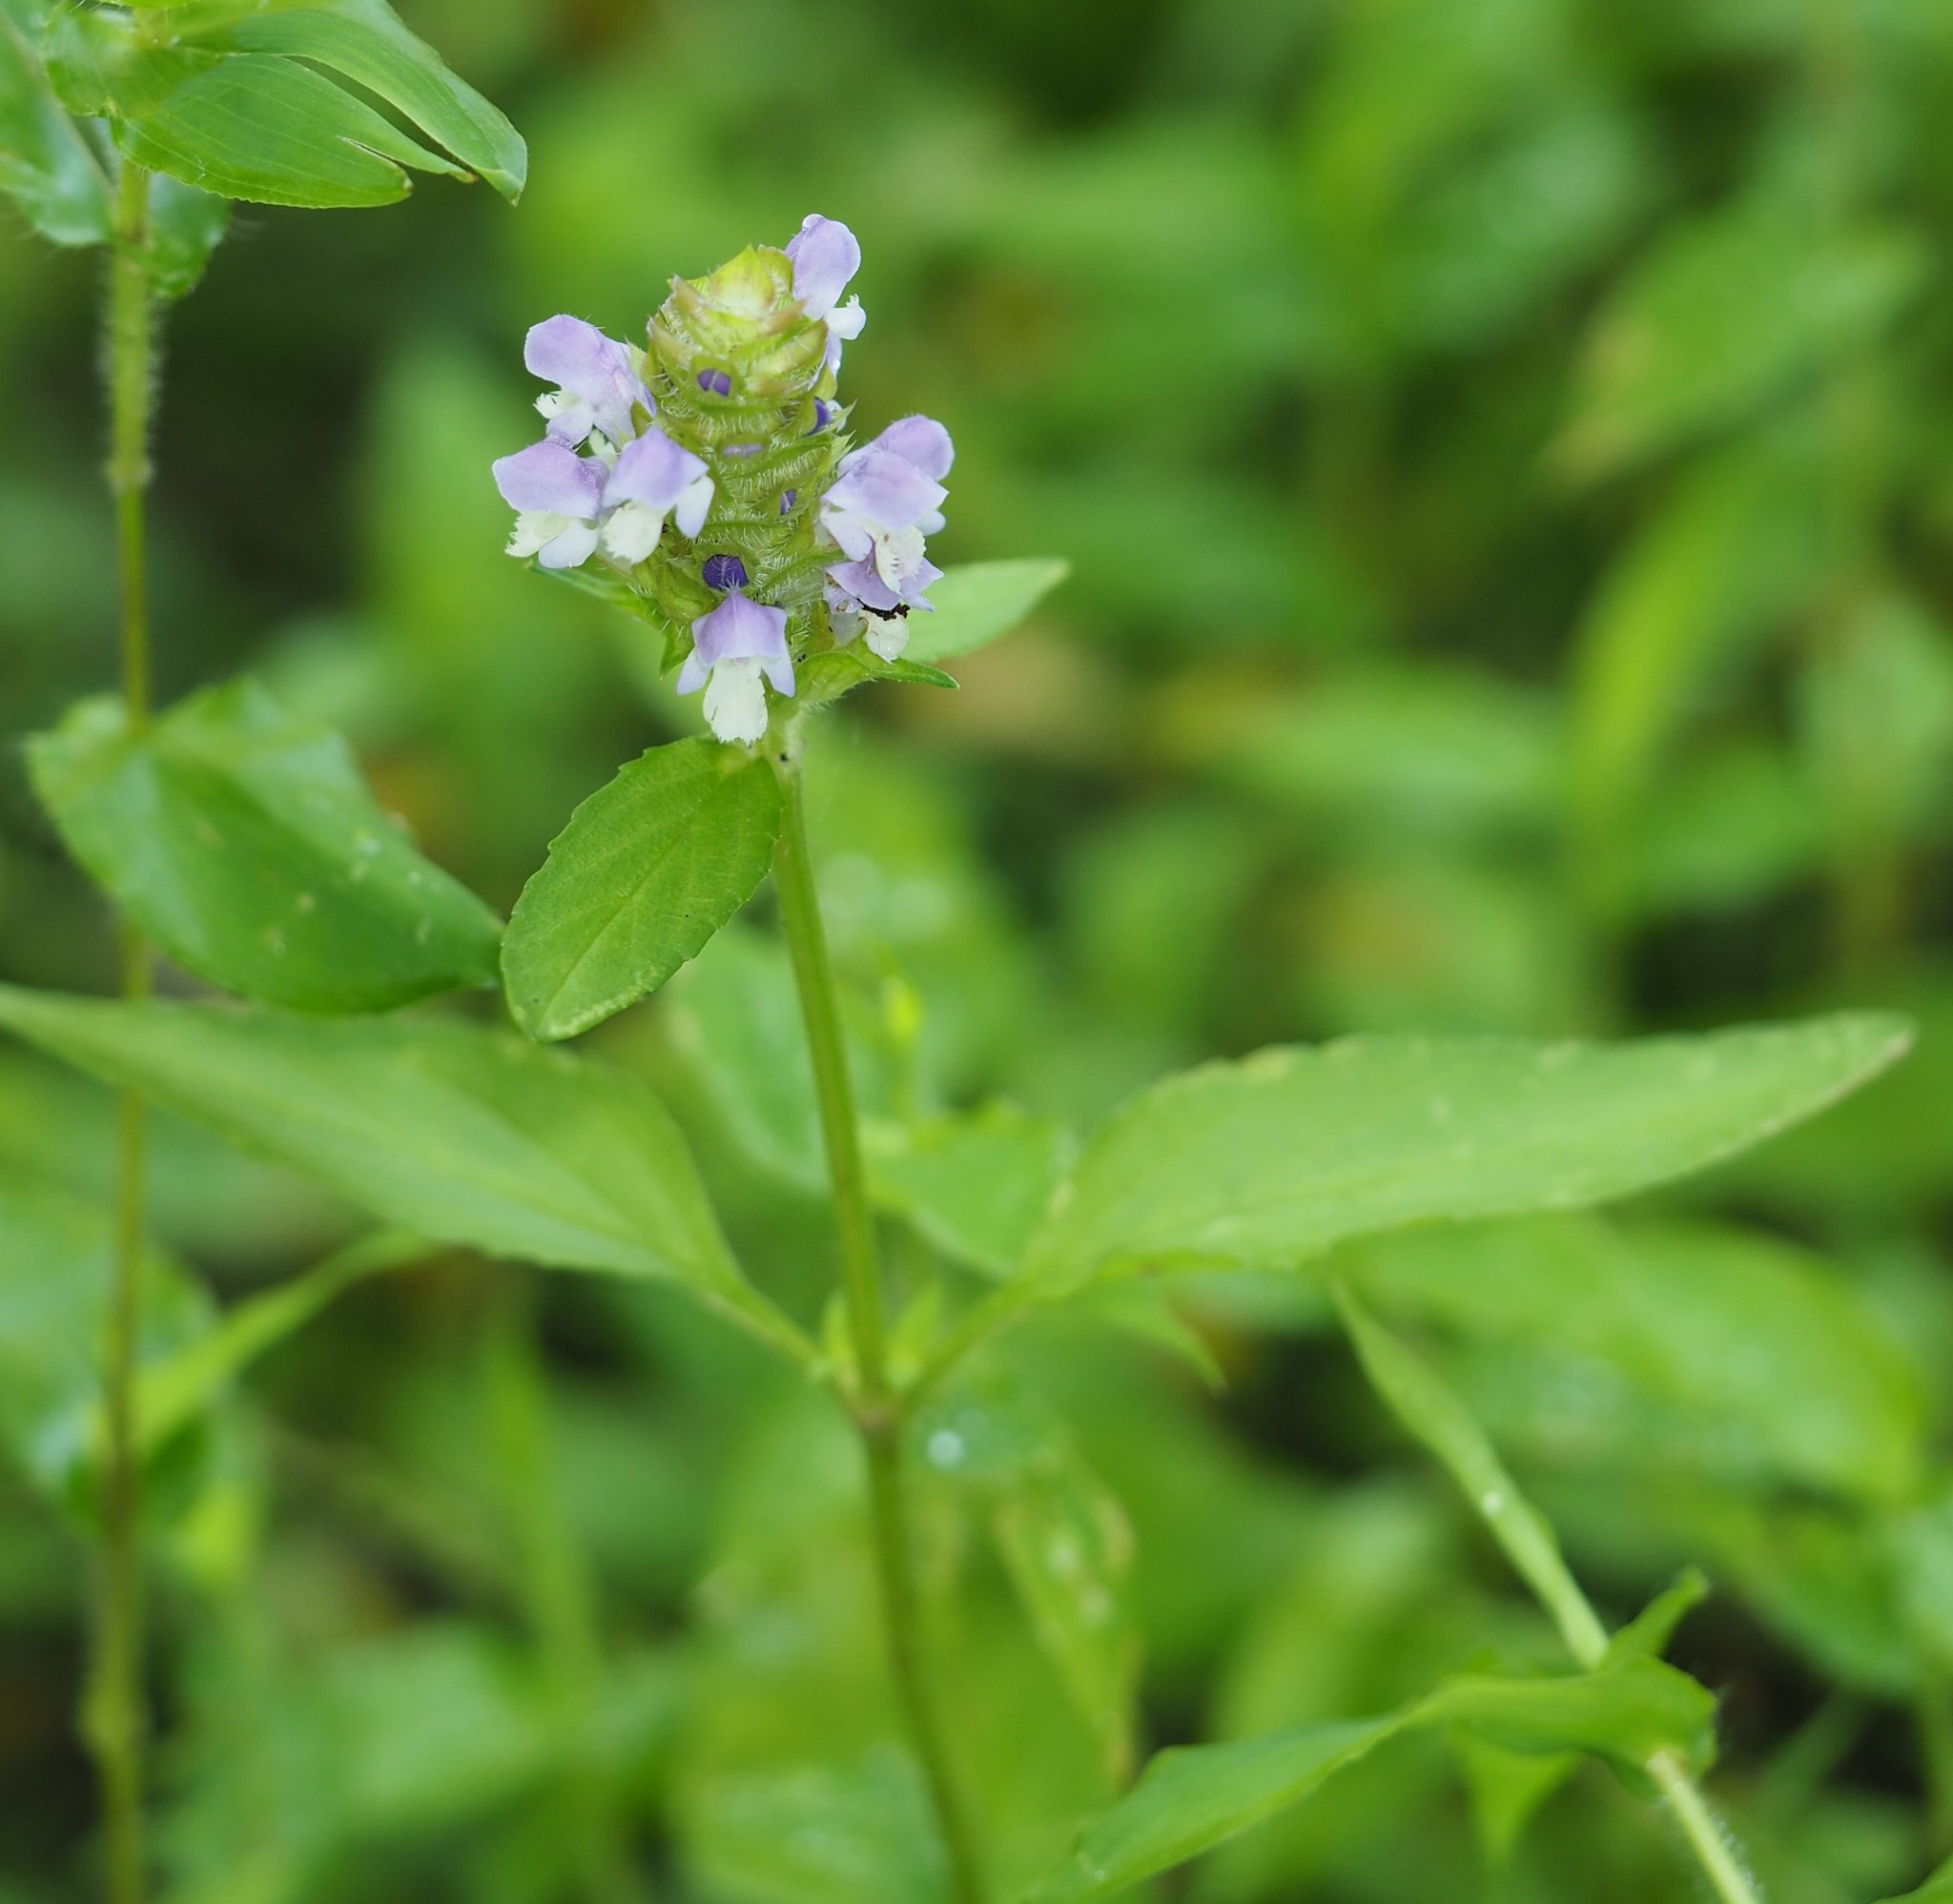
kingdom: Plantae
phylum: Tracheophyta
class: Magnoliopsida
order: Lamiales
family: Lamiaceae
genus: Prunella
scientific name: Prunella vulgaris
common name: Heal-all
